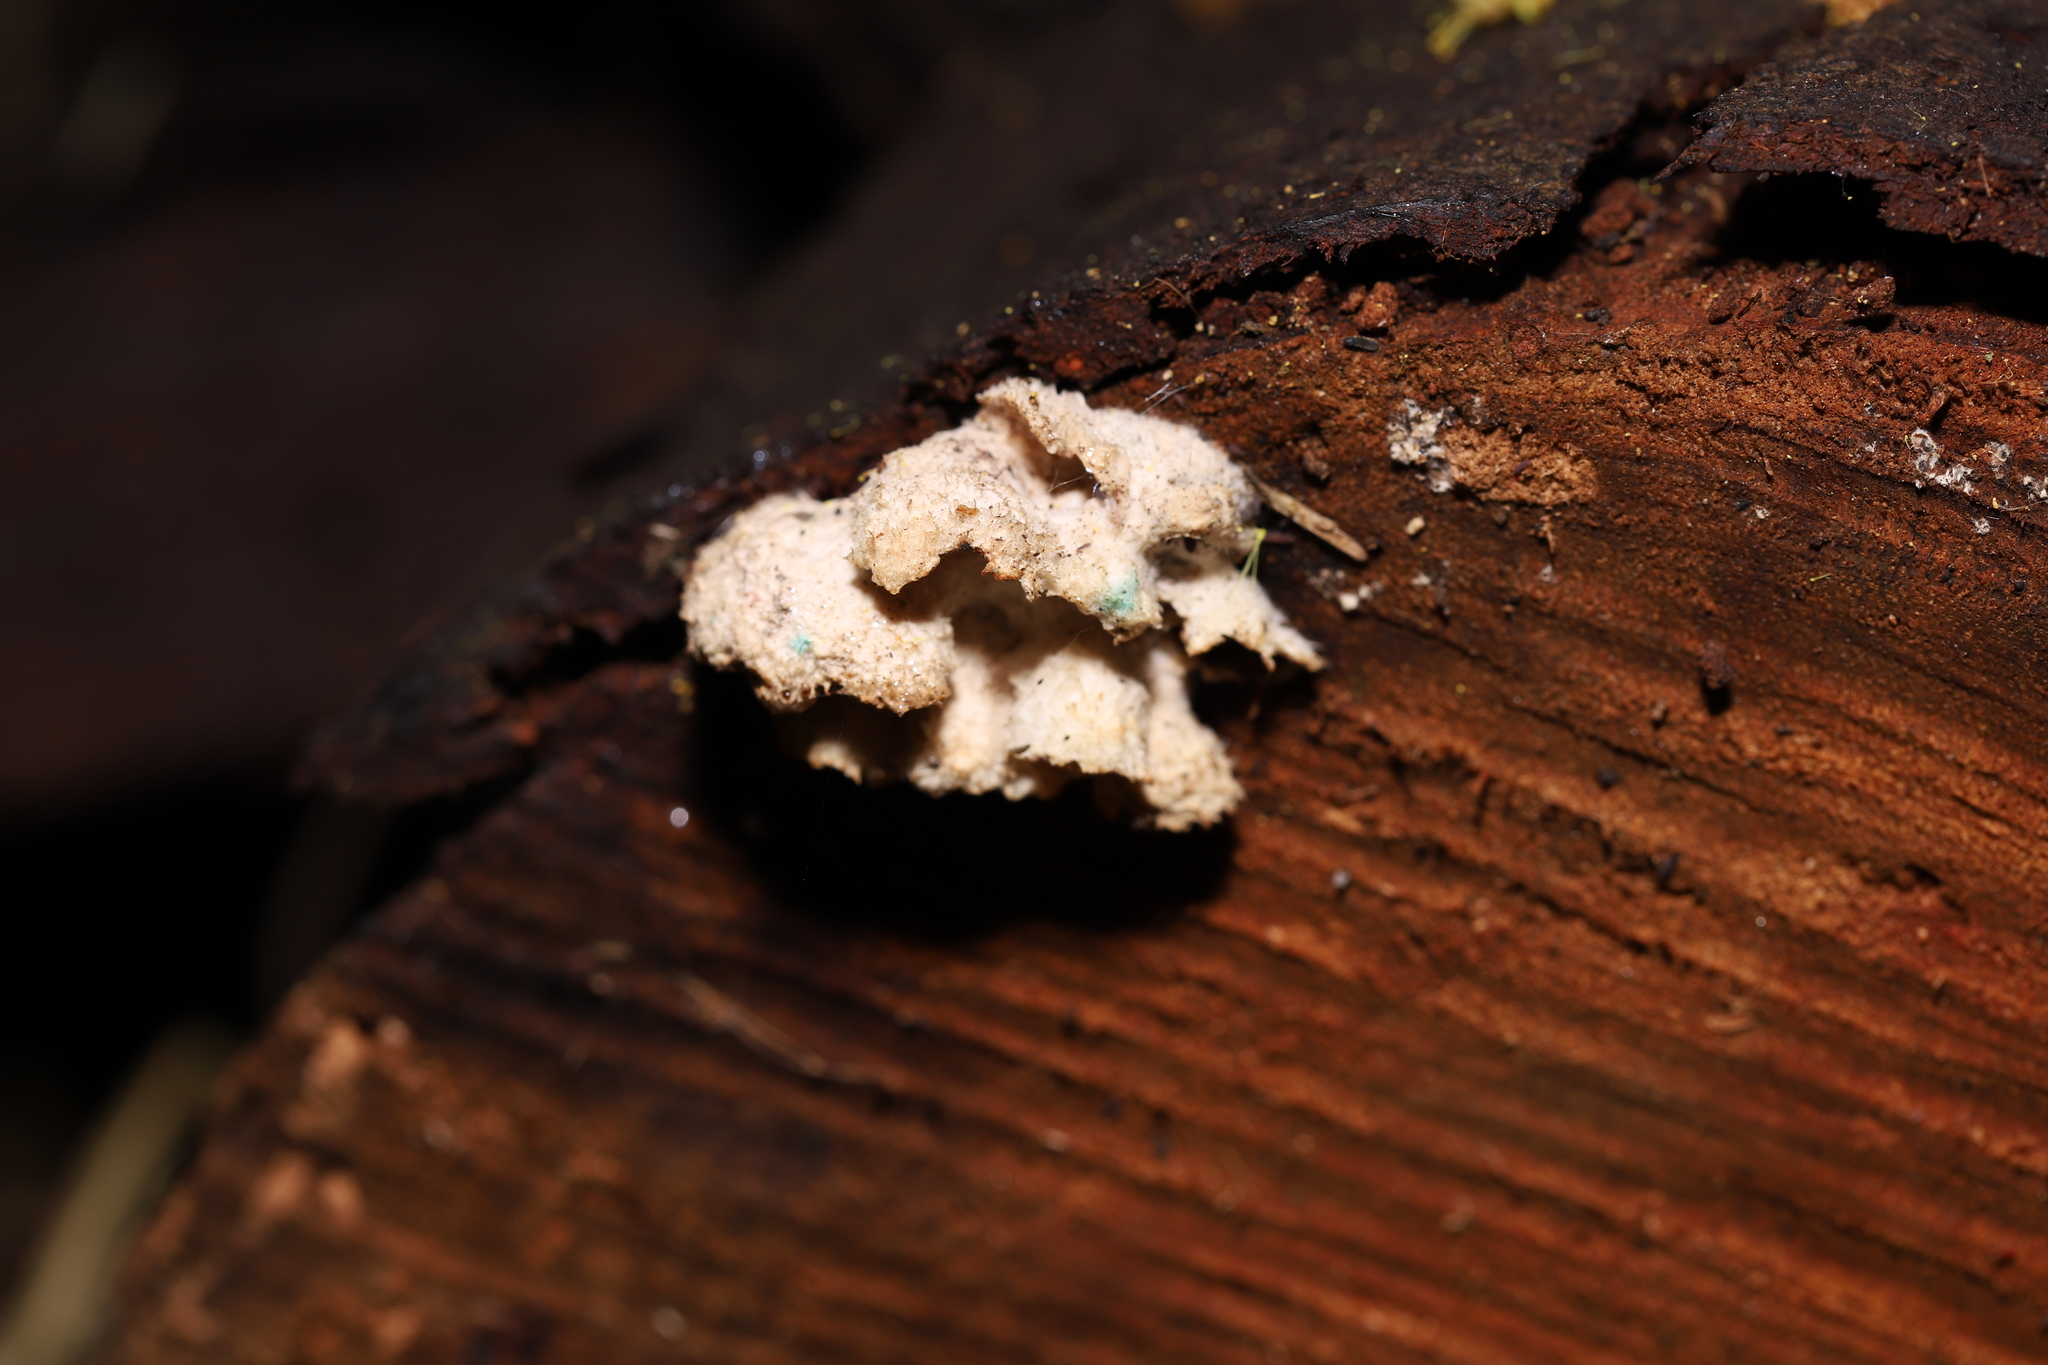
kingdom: Fungi
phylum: Basidiomycota
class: Agaricomycetes
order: Agaricales
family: Schizophyllaceae
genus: Schizophyllum
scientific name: Schizophyllum commune
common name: Common porecrust
